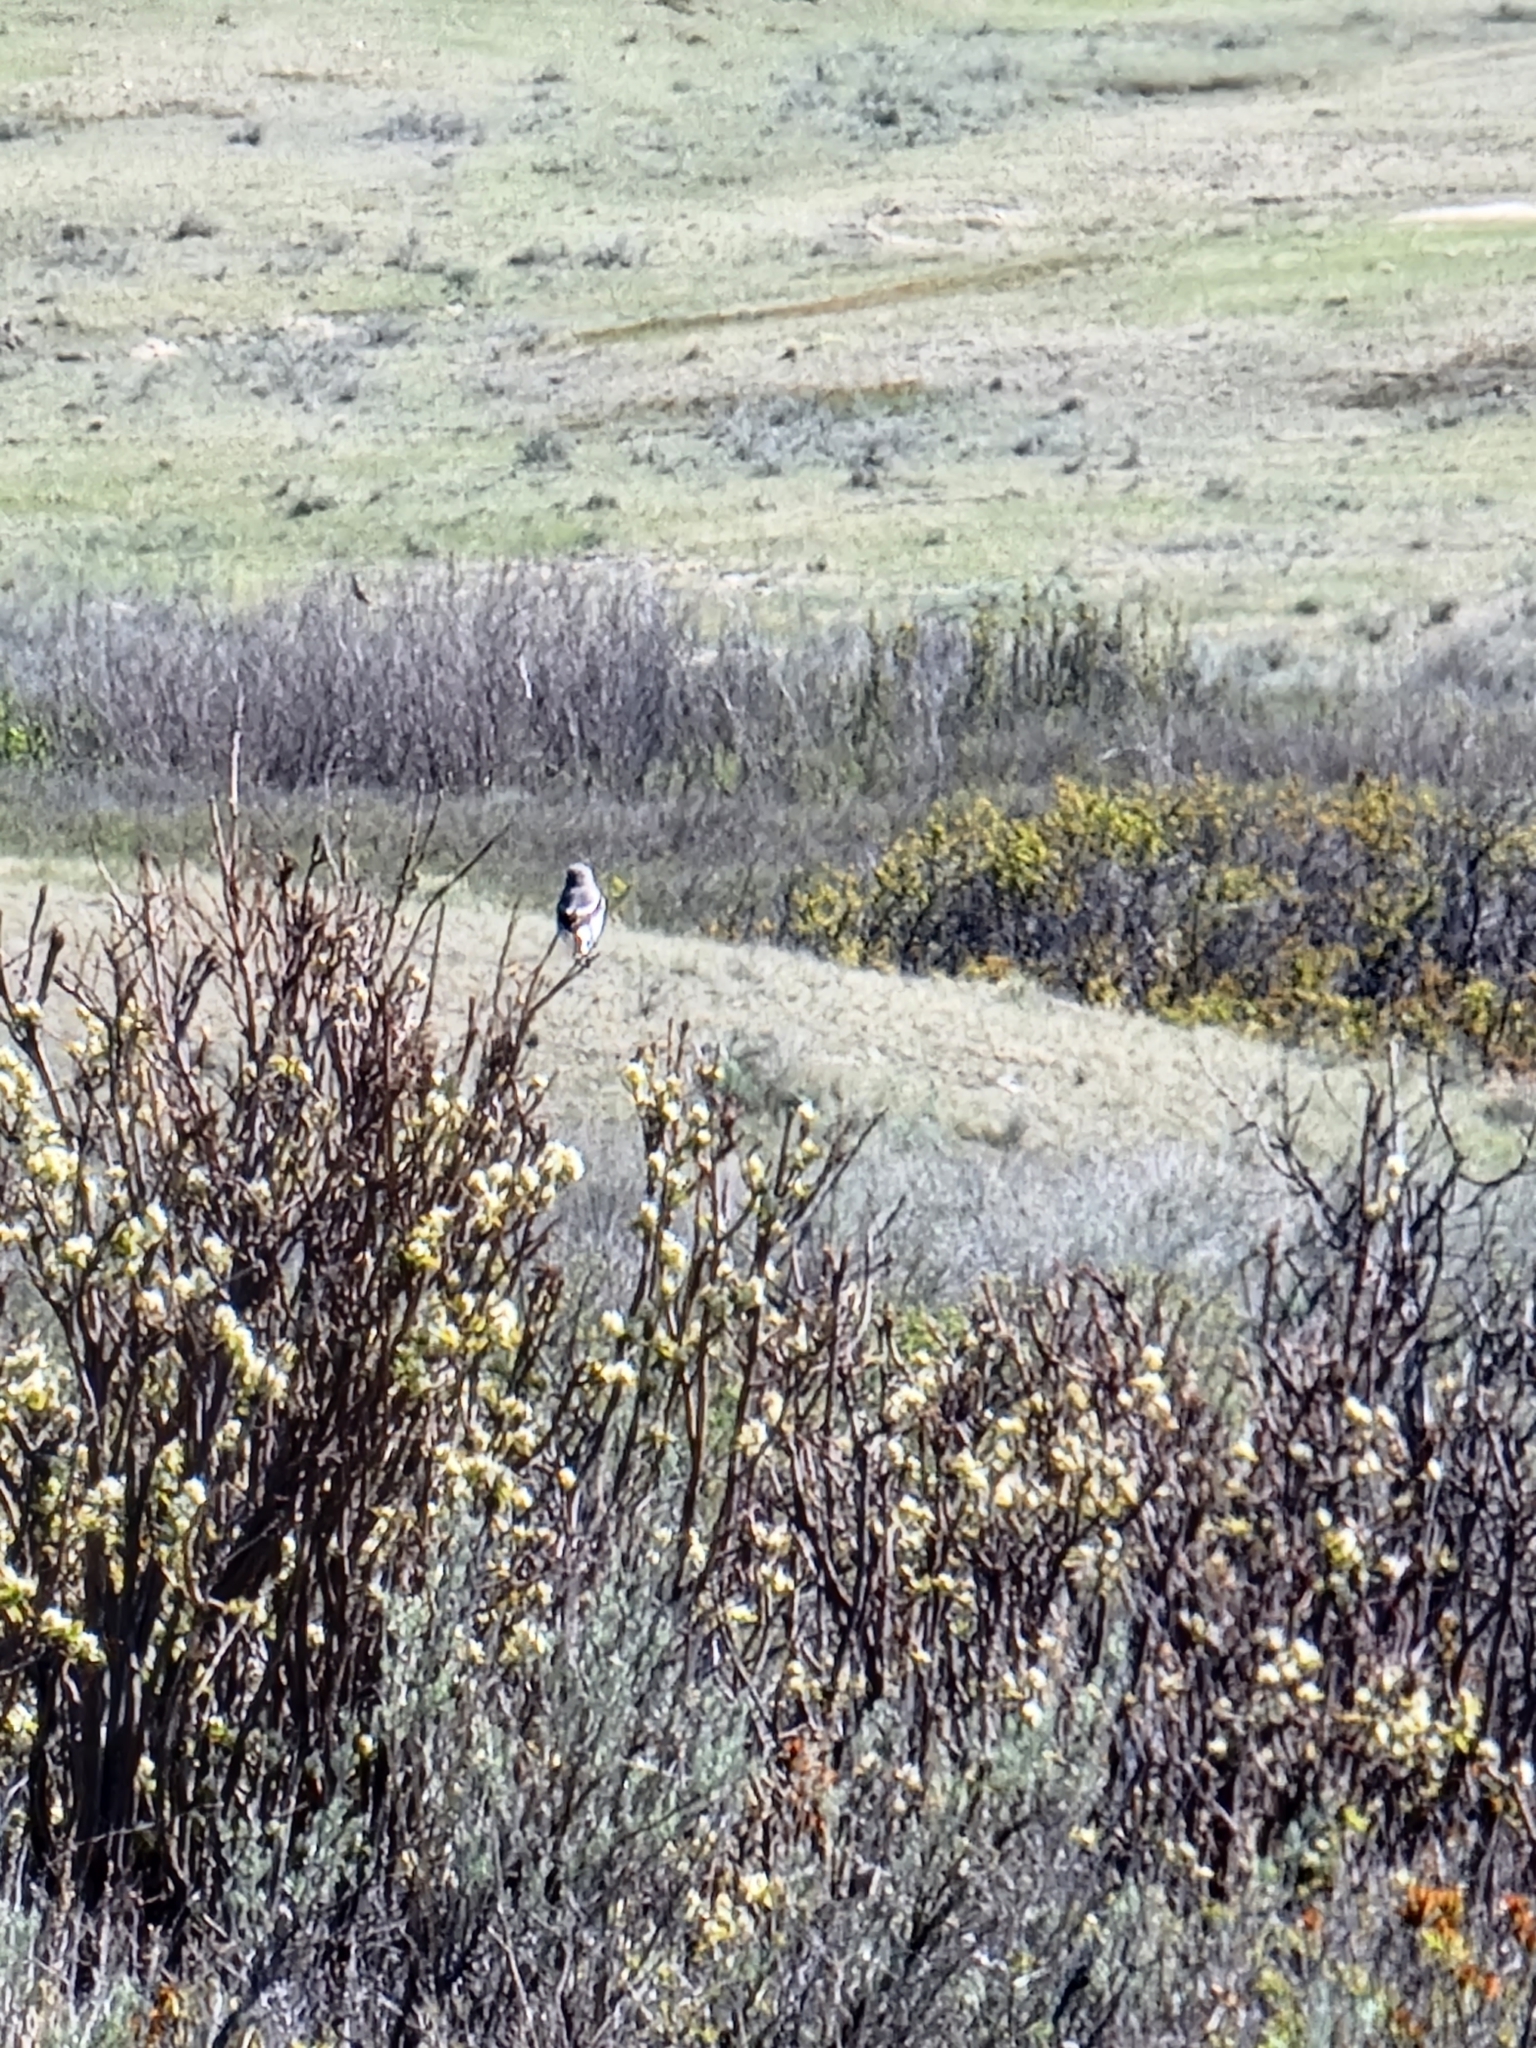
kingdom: Animalia
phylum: Chordata
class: Aves
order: Passeriformes
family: Laniidae
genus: Lanius
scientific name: Lanius ludovicianus
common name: Loggerhead shrike
